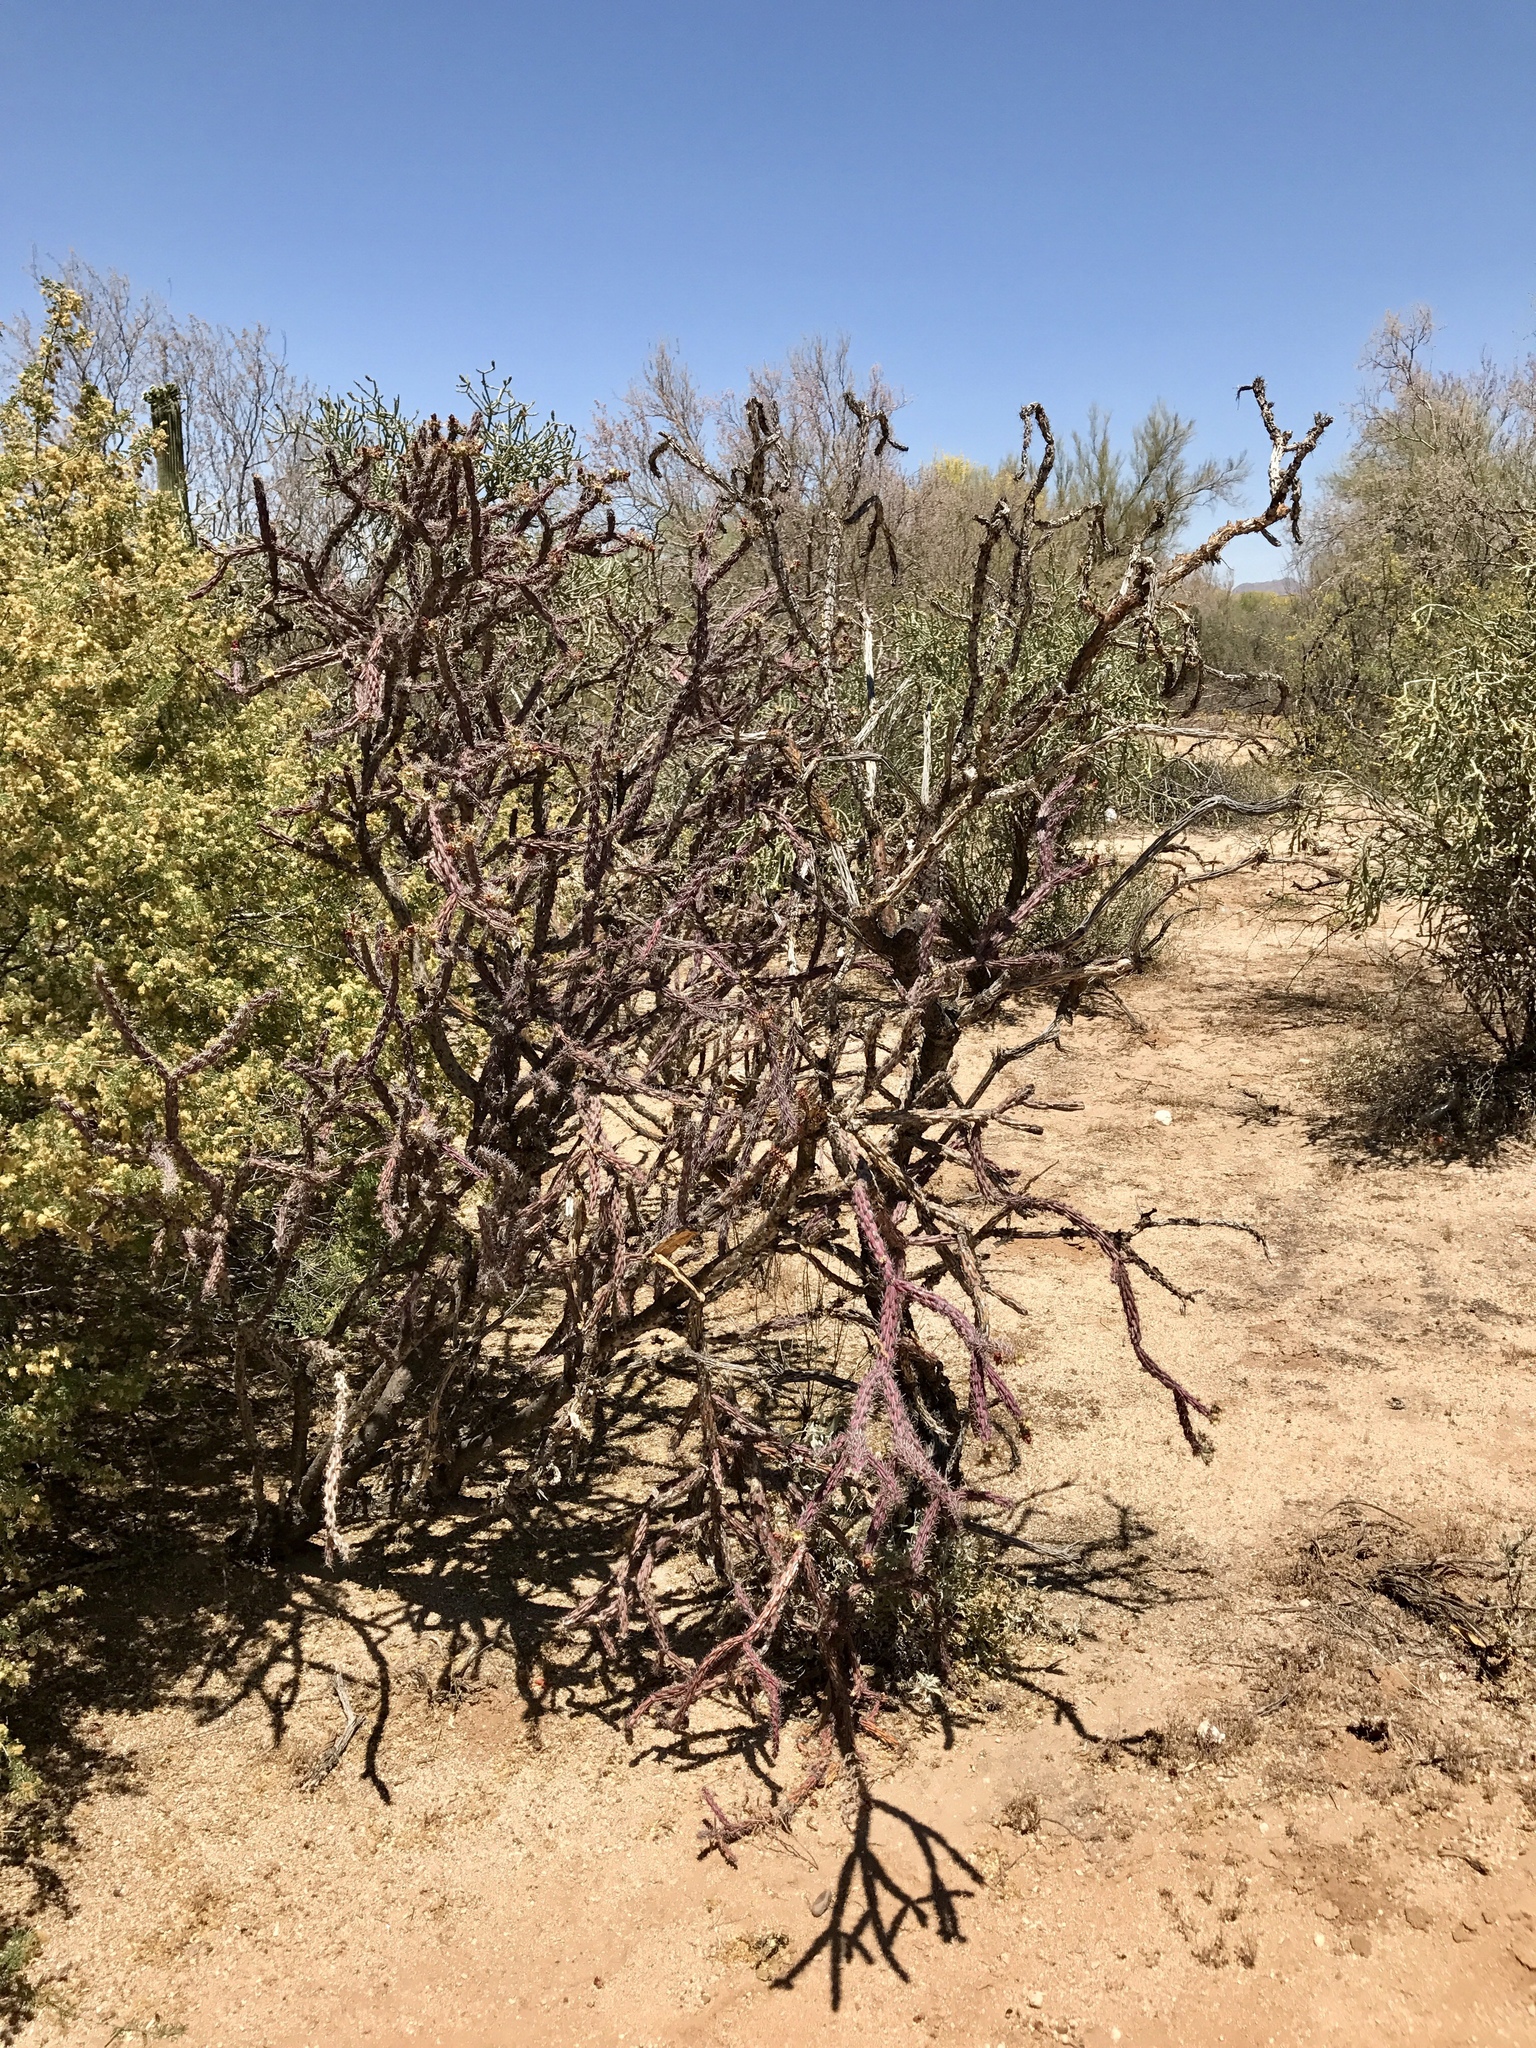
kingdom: Plantae
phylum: Tracheophyta
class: Magnoliopsida
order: Caryophyllales
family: Cactaceae
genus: Cylindropuntia
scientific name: Cylindropuntia thurberi
